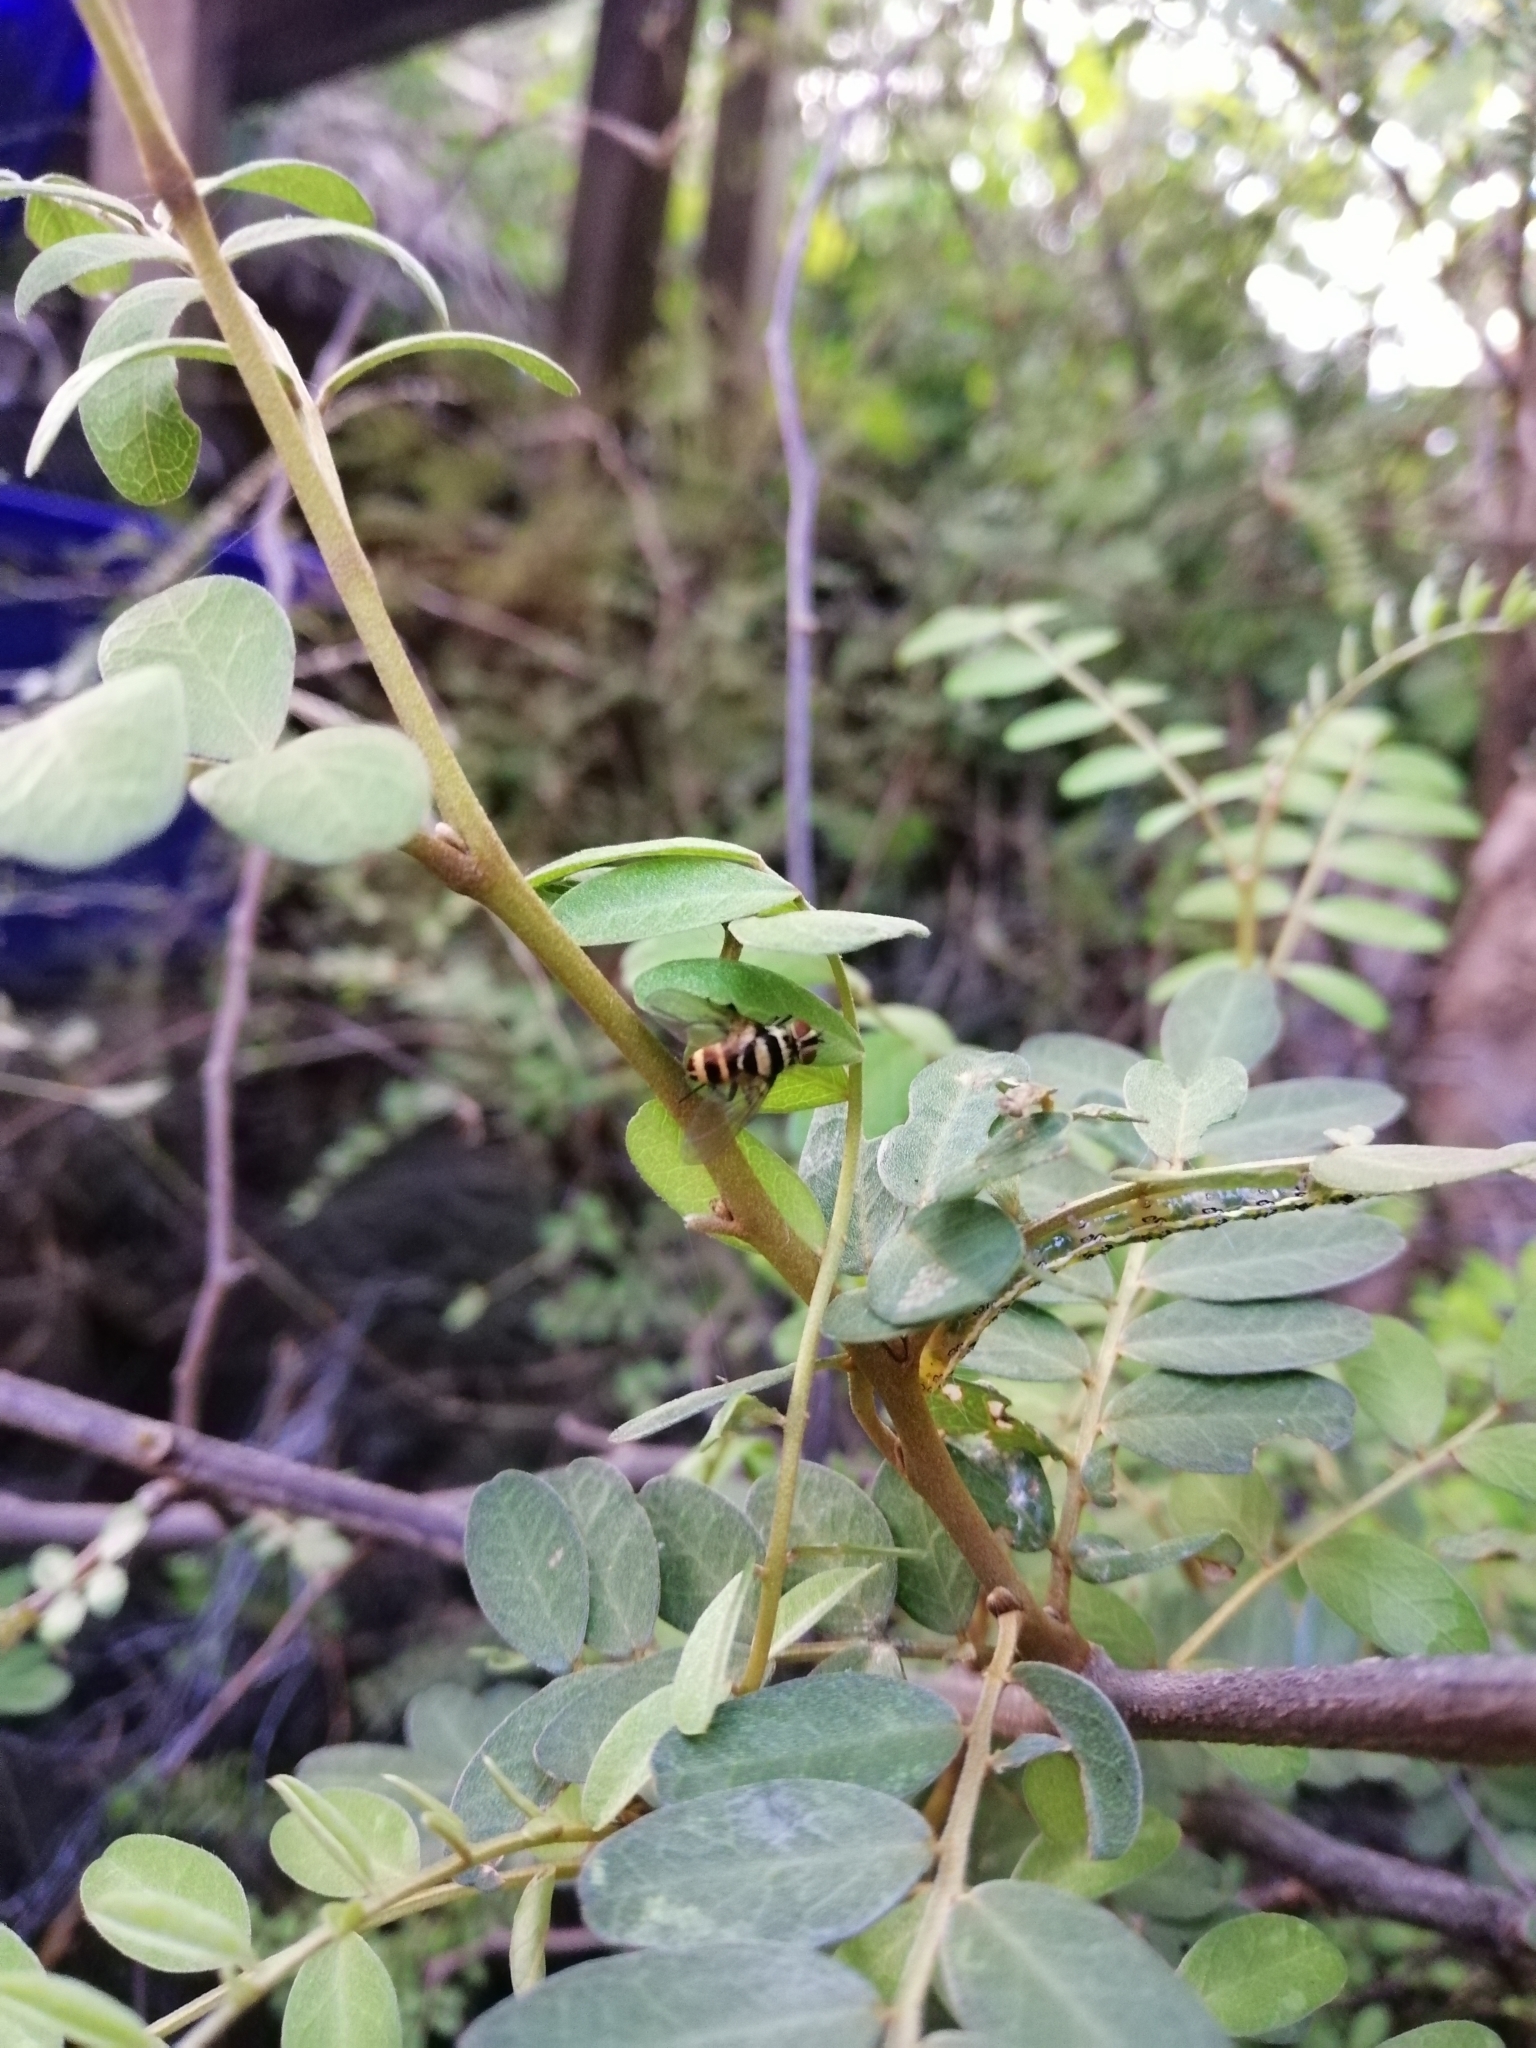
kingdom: Animalia
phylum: Arthropoda
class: Insecta
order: Diptera
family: Tachinidae
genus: Trigonospila
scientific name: Trigonospila brevifacies
